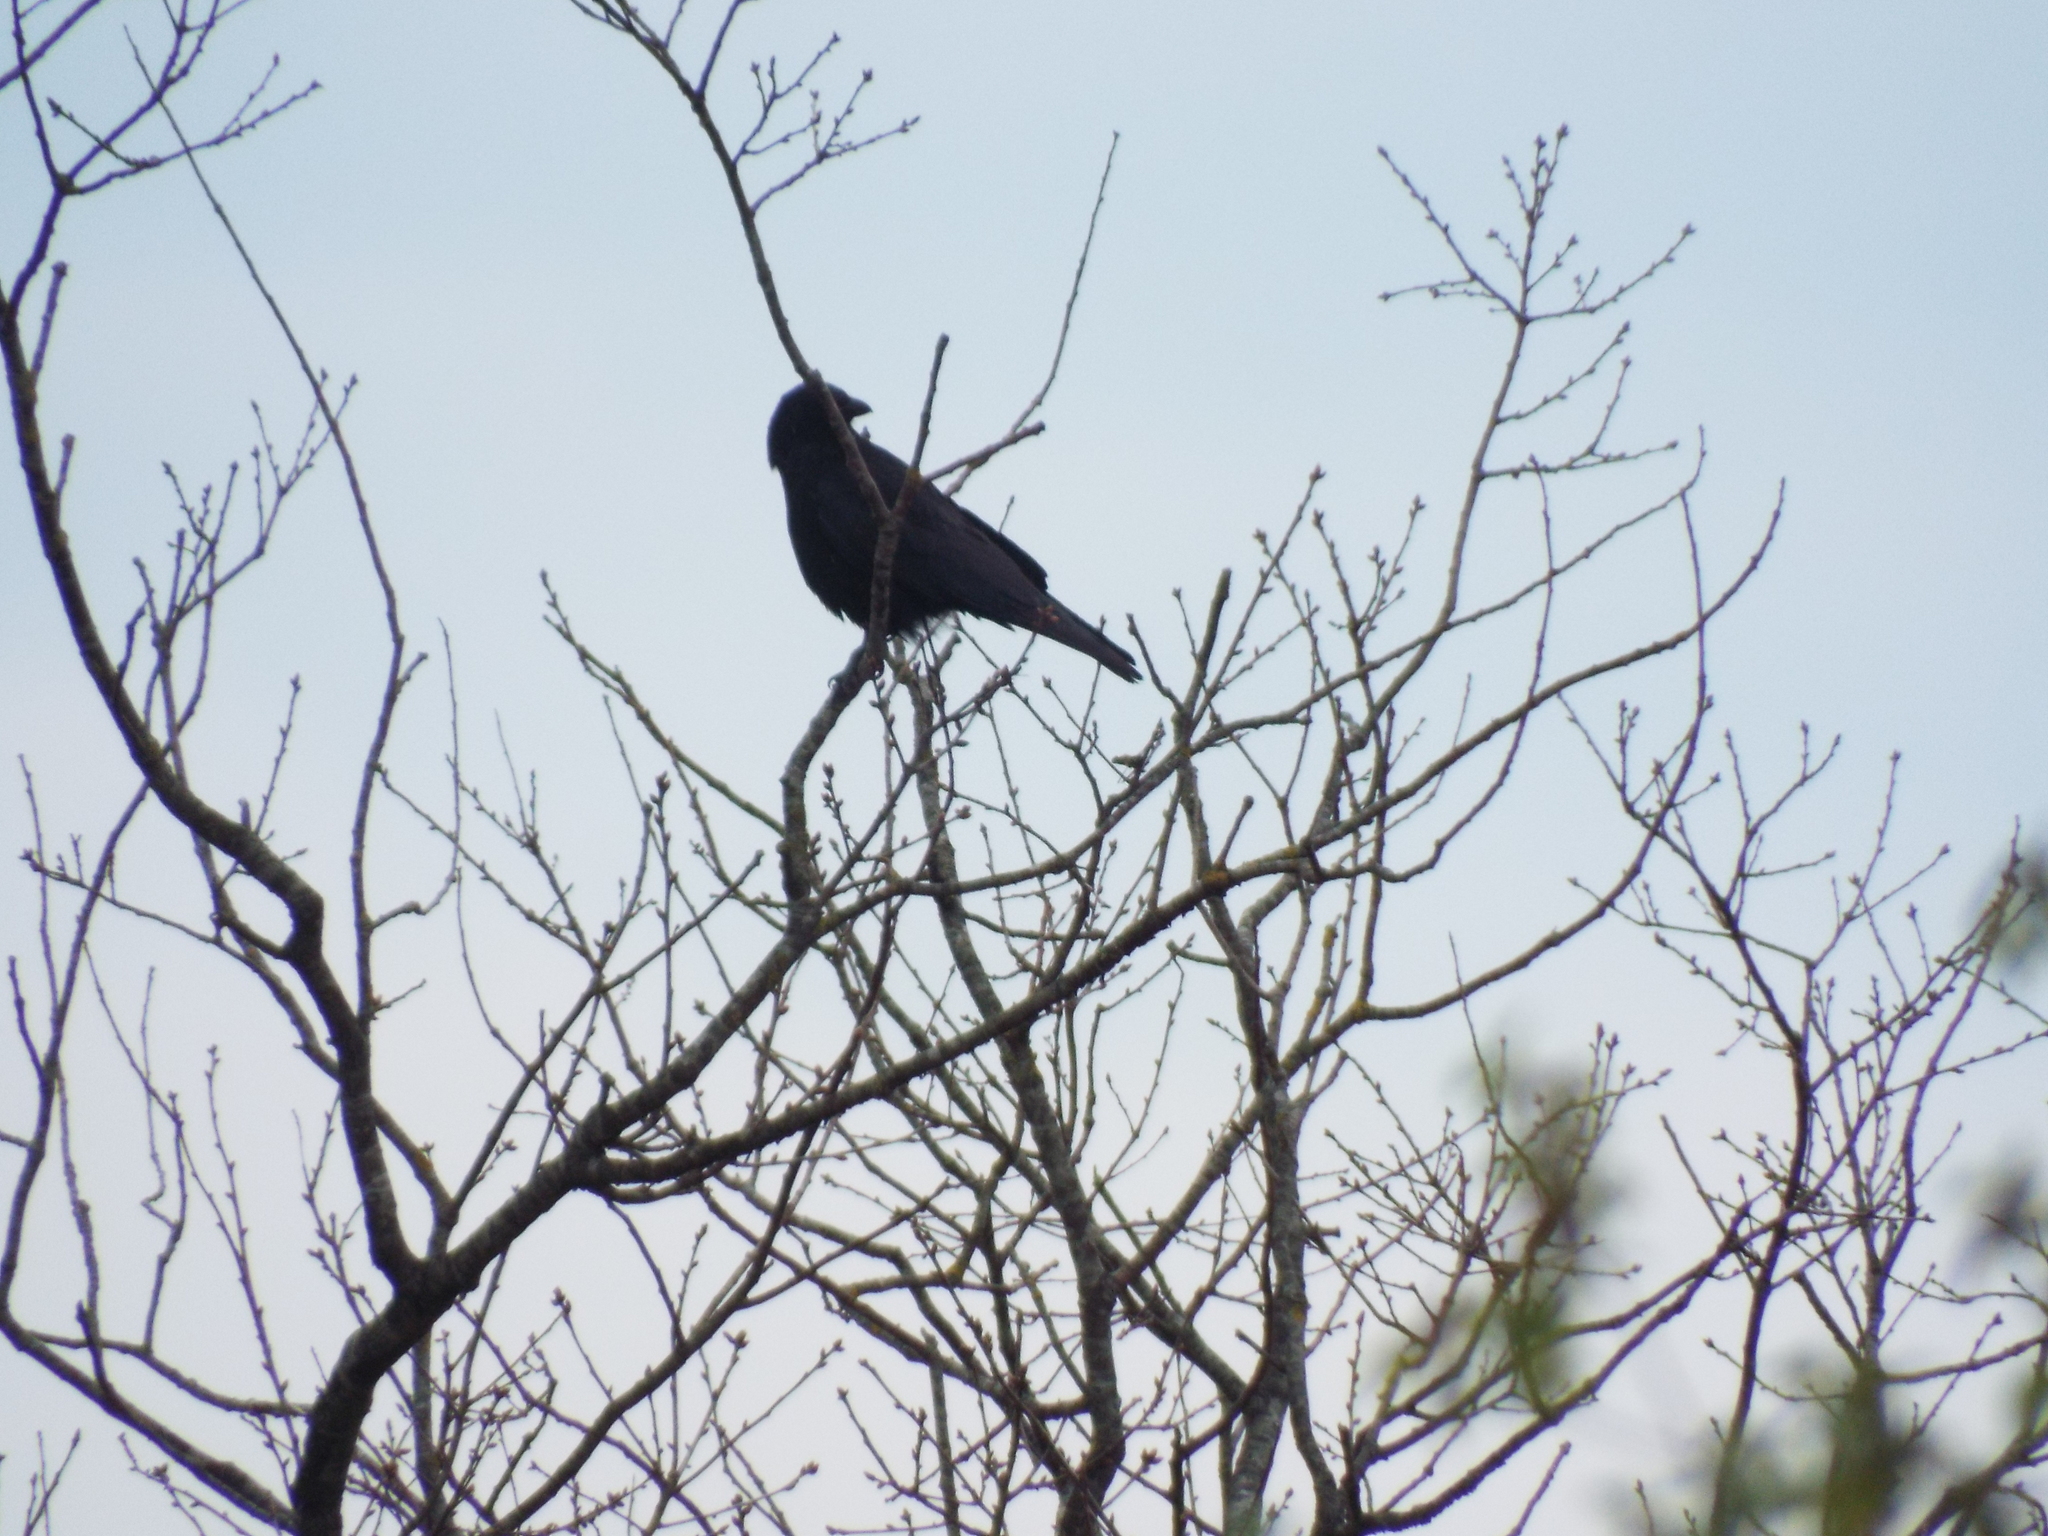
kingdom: Animalia
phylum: Chordata
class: Aves
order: Passeriformes
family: Corvidae
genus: Corvus
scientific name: Corvus corone
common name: Carrion crow
